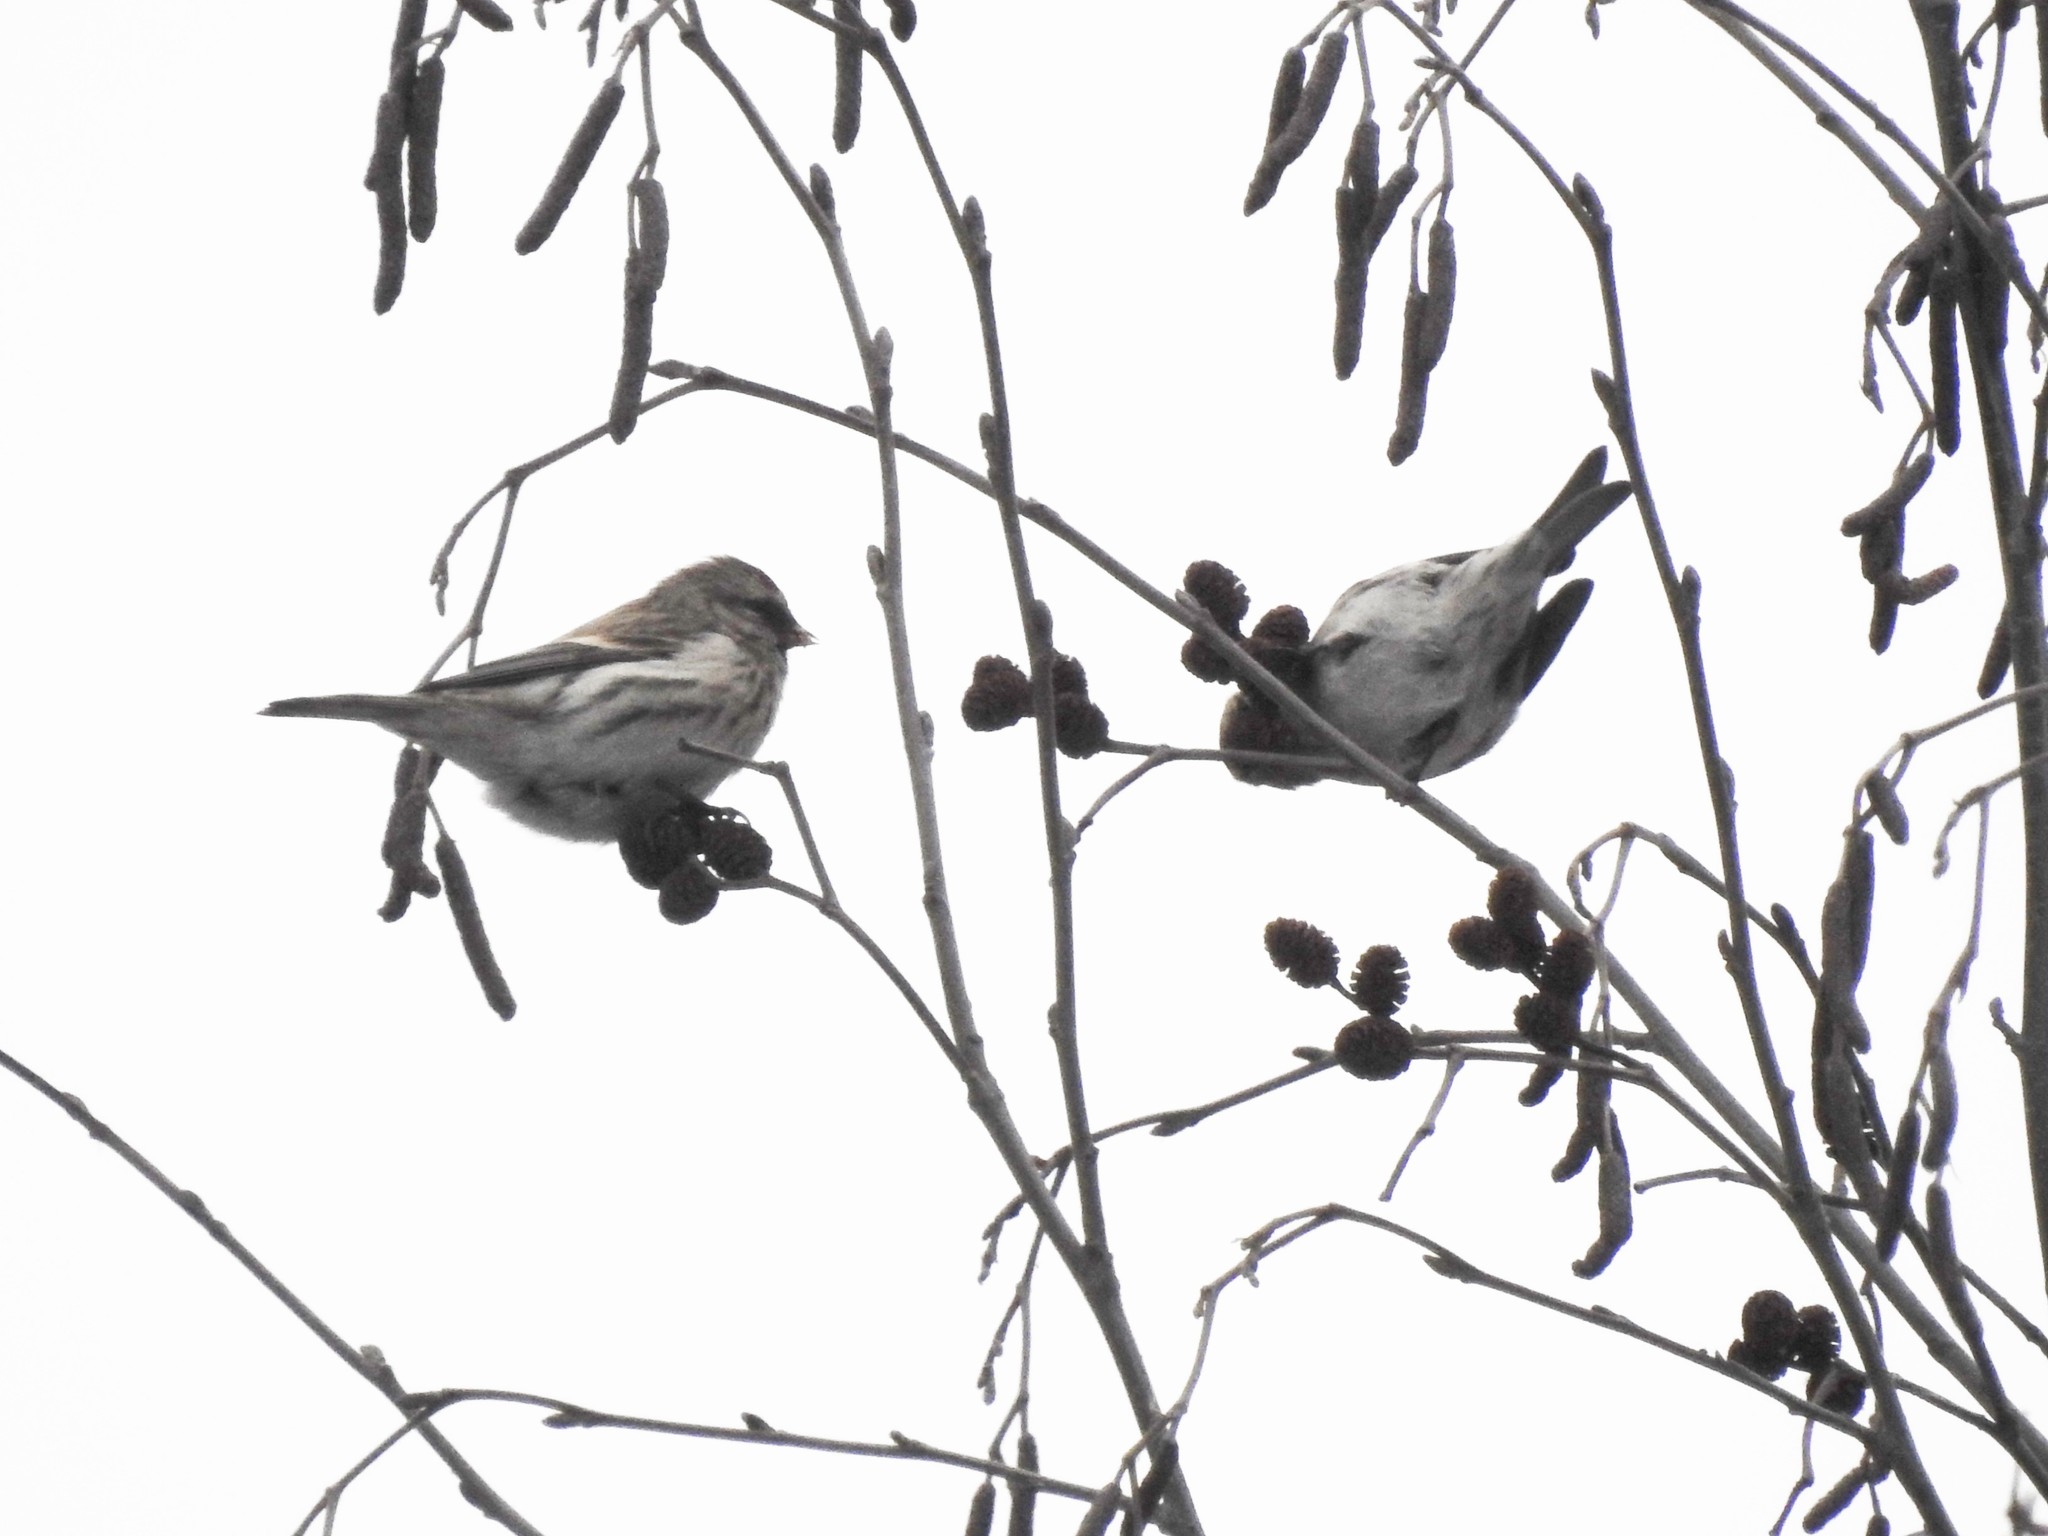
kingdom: Animalia
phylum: Chordata
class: Aves
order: Passeriformes
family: Fringillidae
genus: Acanthis
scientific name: Acanthis flammea
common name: Common redpoll
